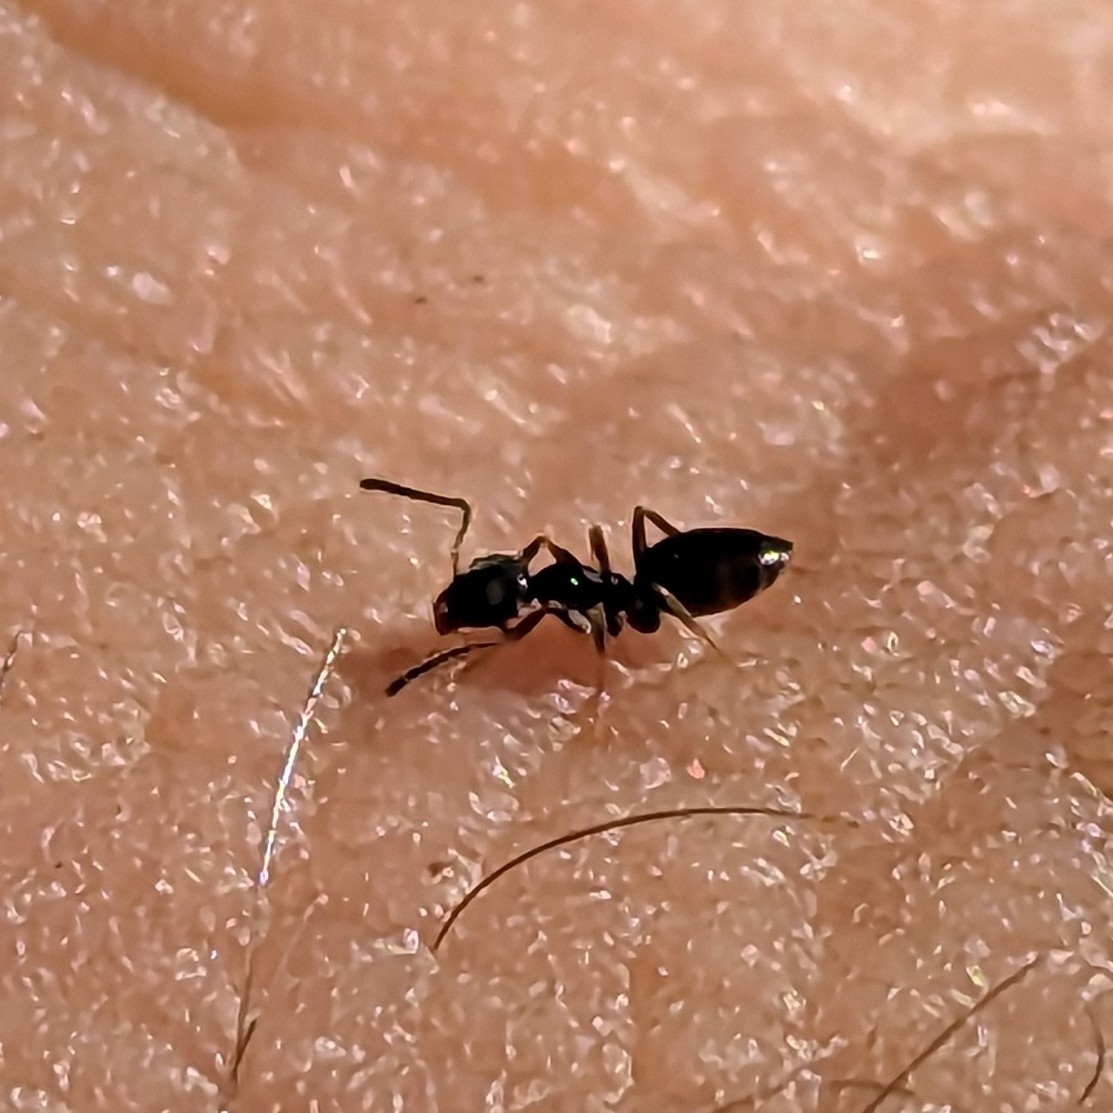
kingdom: Animalia
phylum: Arthropoda
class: Insecta
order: Hymenoptera
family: Formicidae
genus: Tapinoma
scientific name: Tapinoma sessile
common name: Odorous house ant
